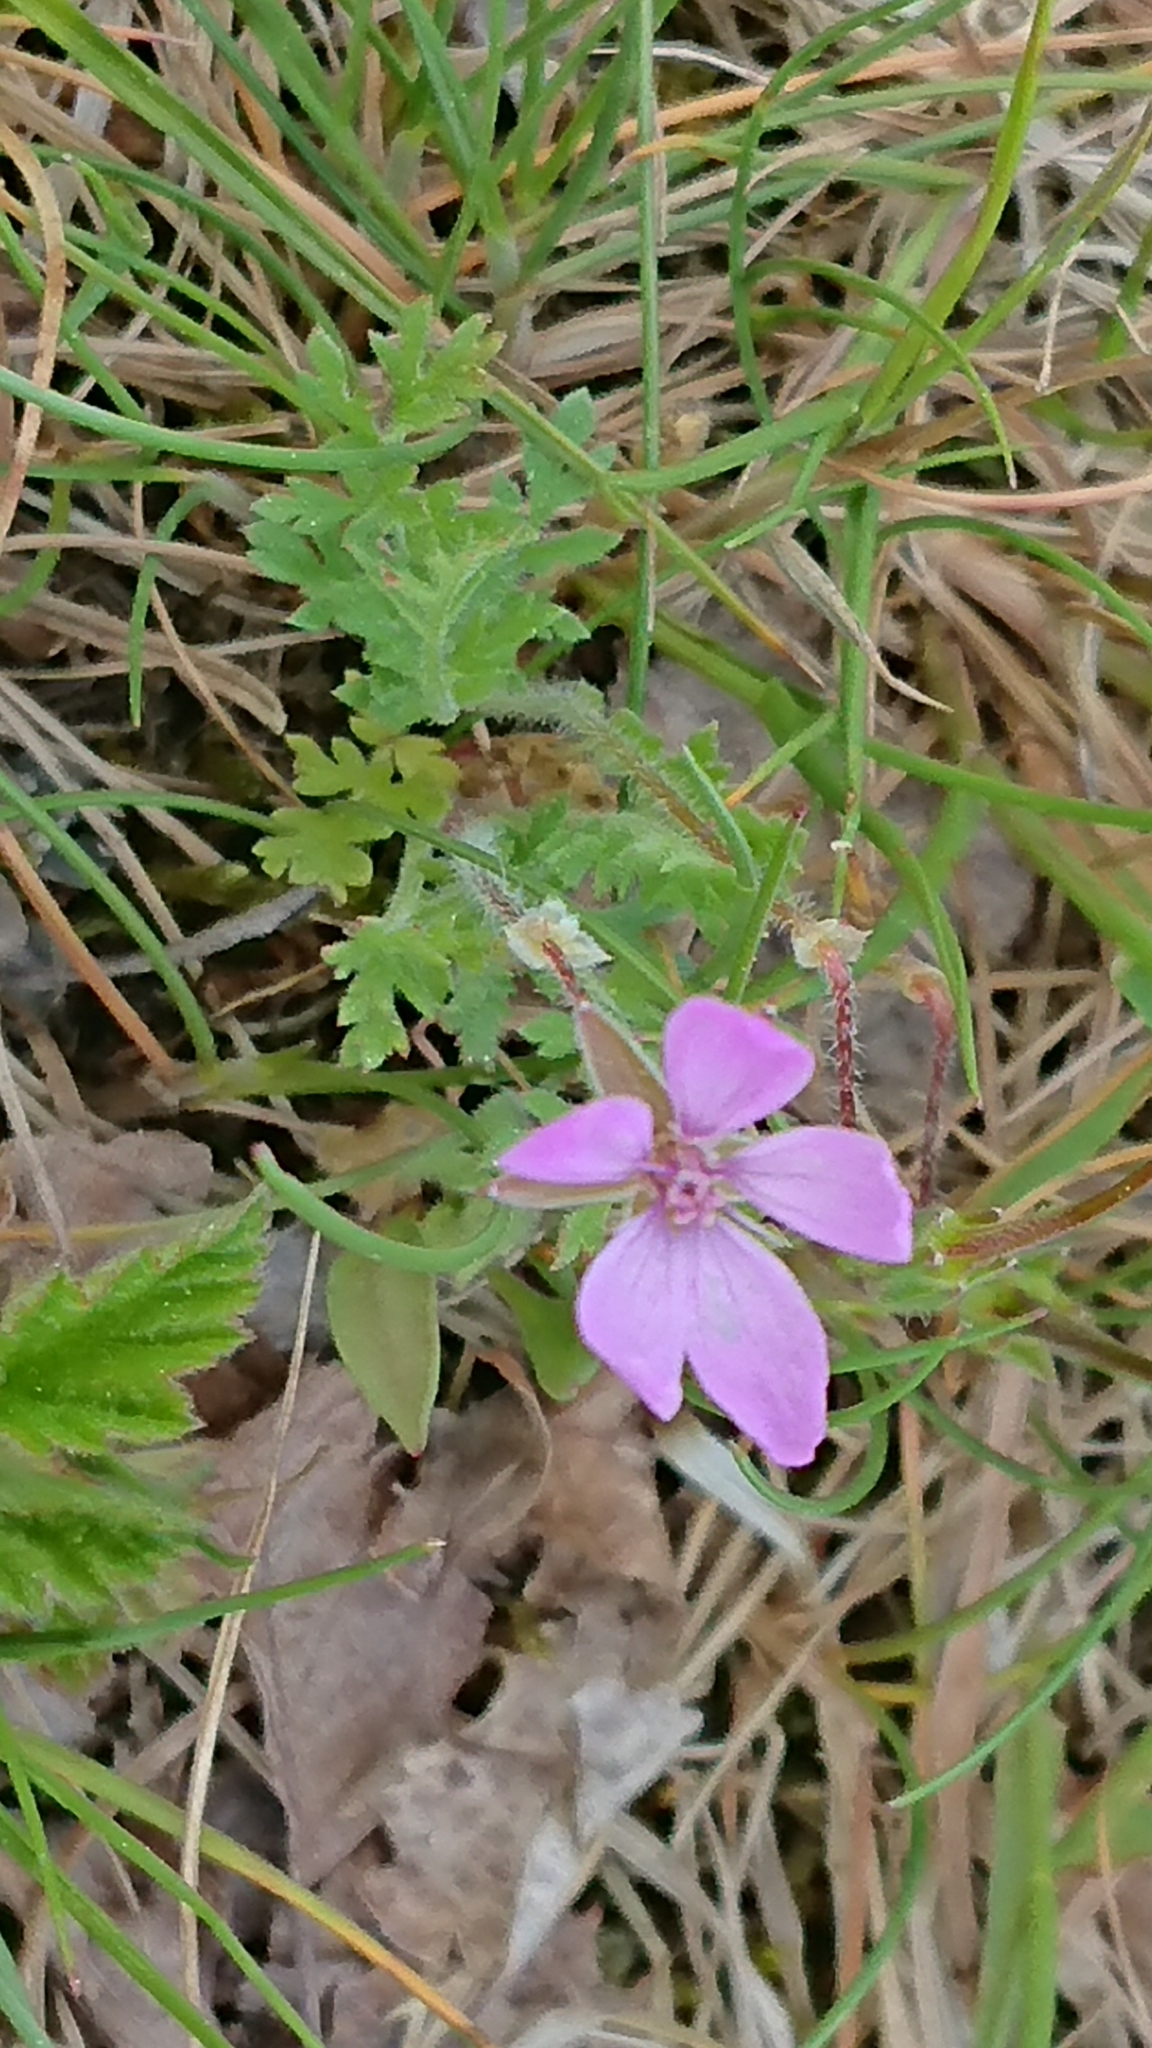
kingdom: Plantae
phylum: Tracheophyta
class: Magnoliopsida
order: Geraniales
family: Geraniaceae
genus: Erodium
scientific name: Erodium cicutarium
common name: Common stork's-bill
